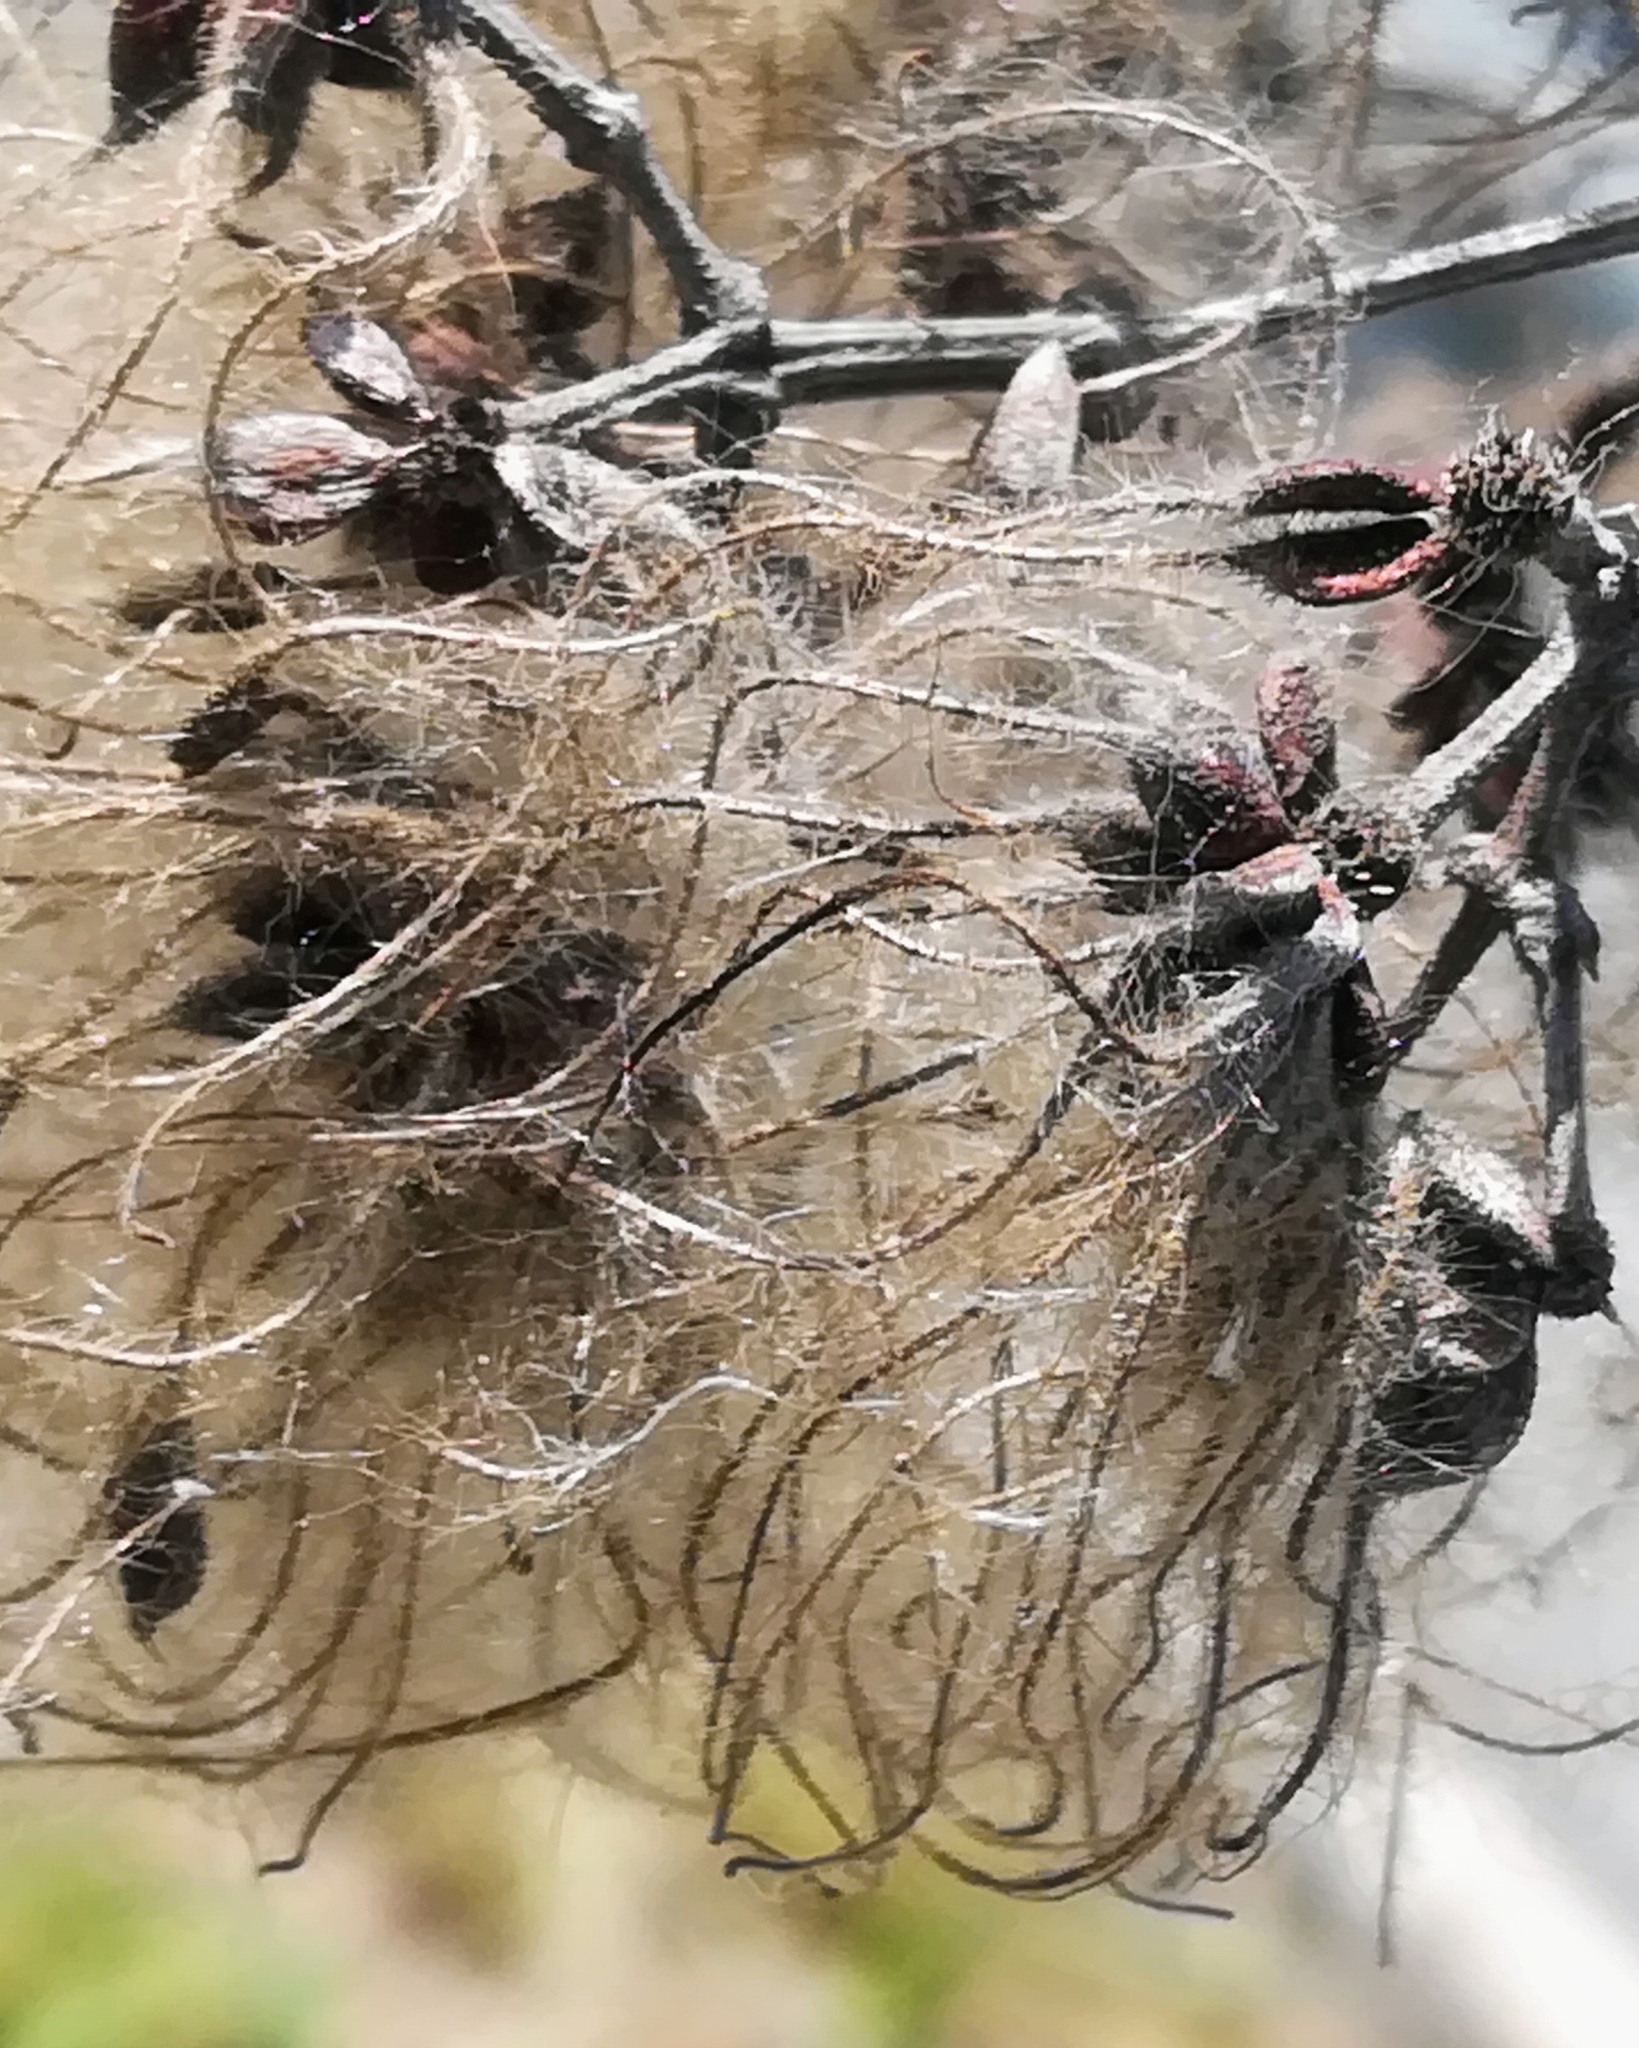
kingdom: Plantae
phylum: Tracheophyta
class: Magnoliopsida
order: Ranunculales
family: Ranunculaceae
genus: Clematis
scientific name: Clematis vitalba
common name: Evergreen clematis
